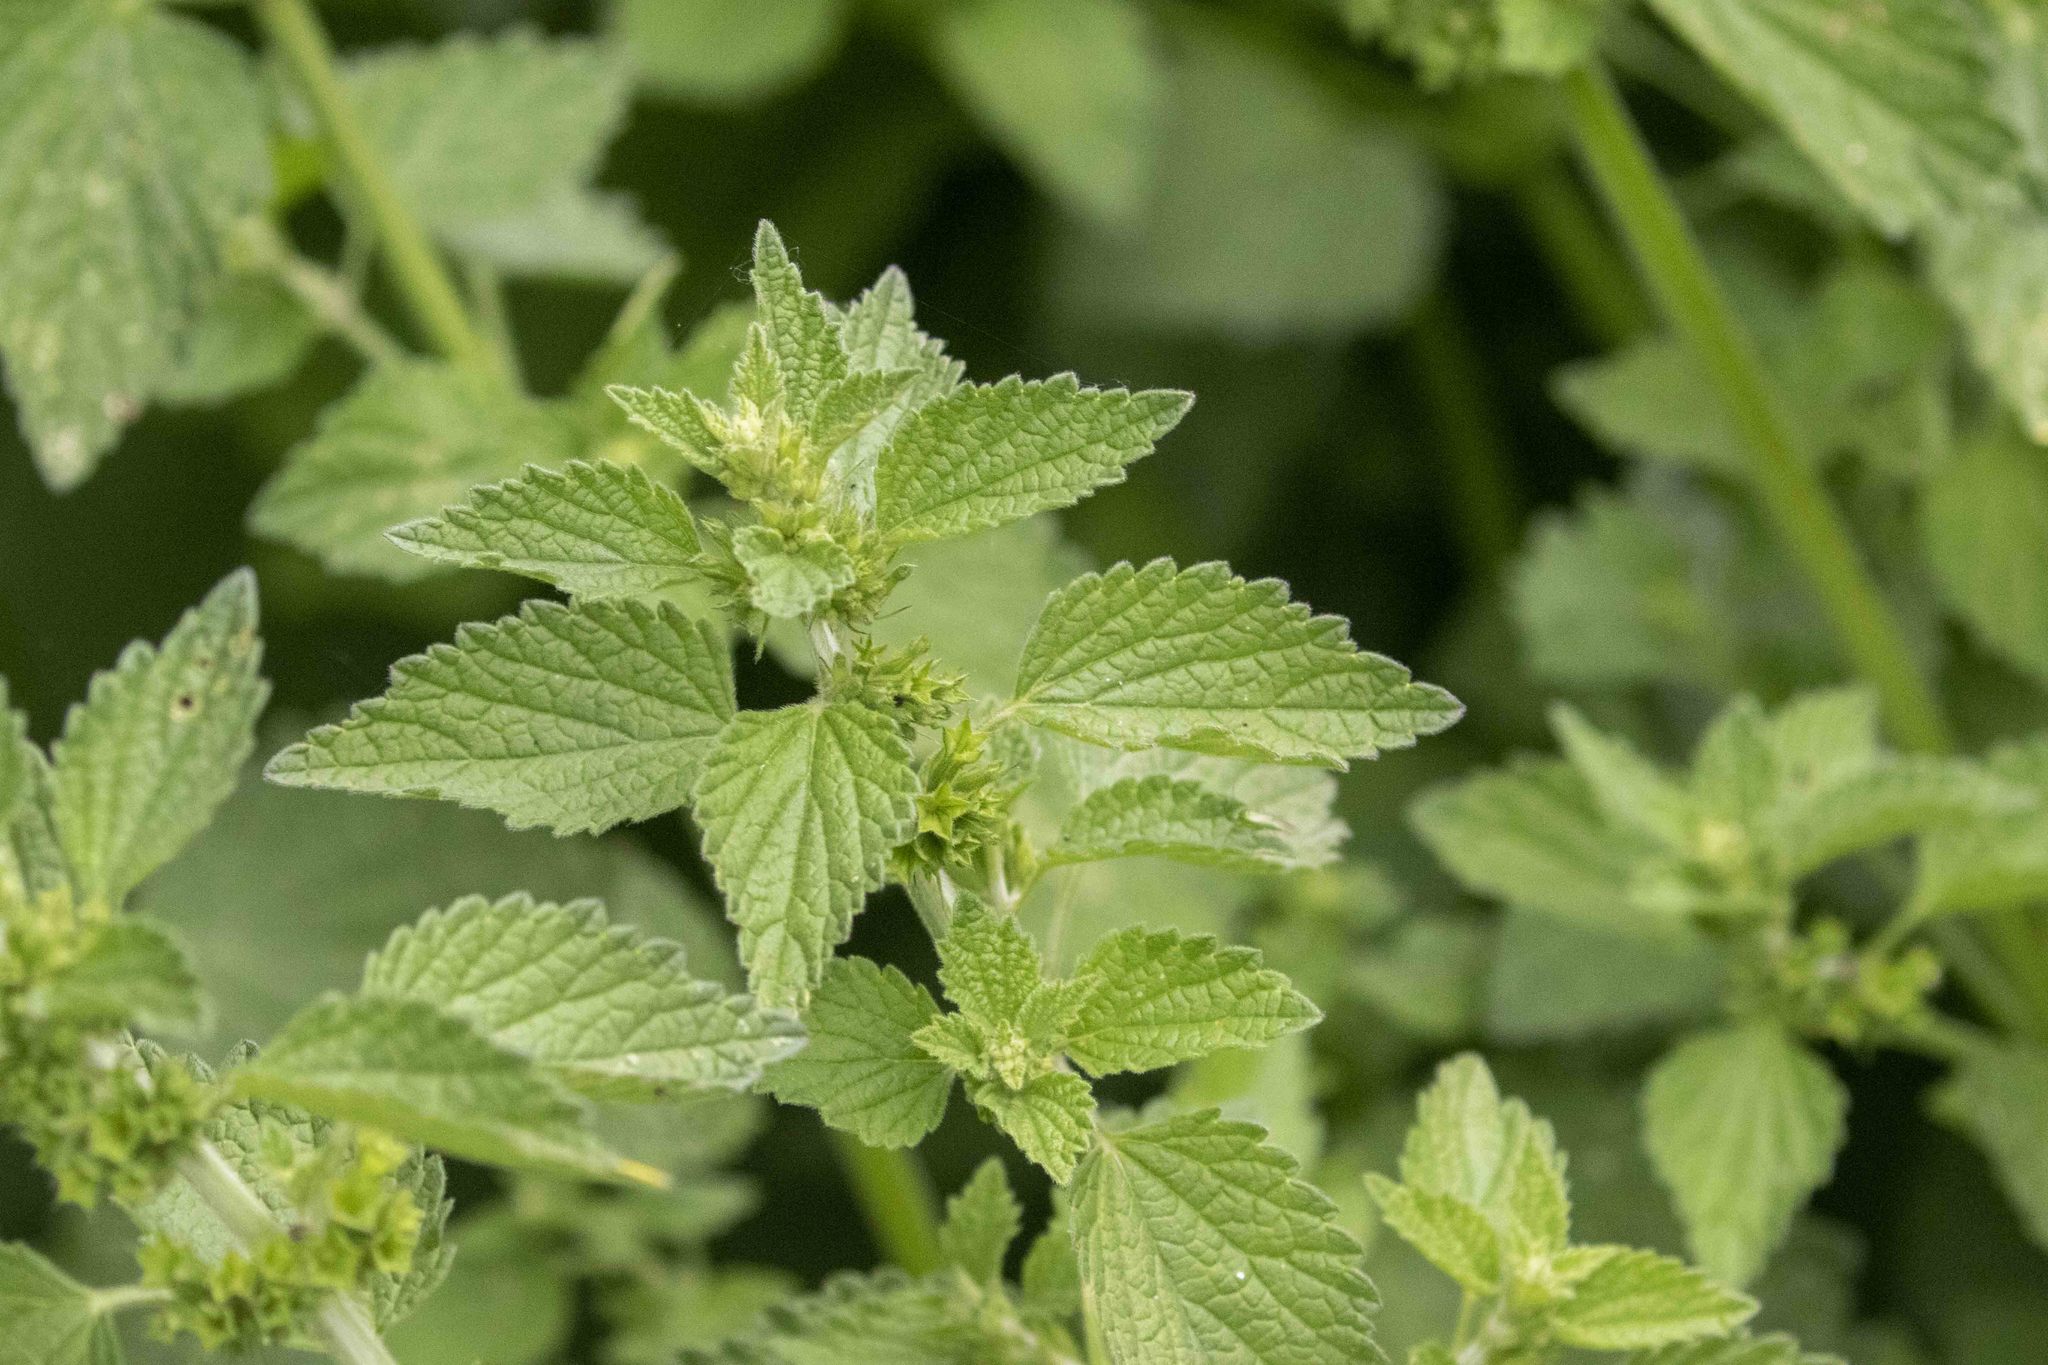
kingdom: Plantae
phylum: Tracheophyta
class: Magnoliopsida
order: Lamiales
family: Lamiaceae
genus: Ballota
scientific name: Ballota nigra
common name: Black horehound
